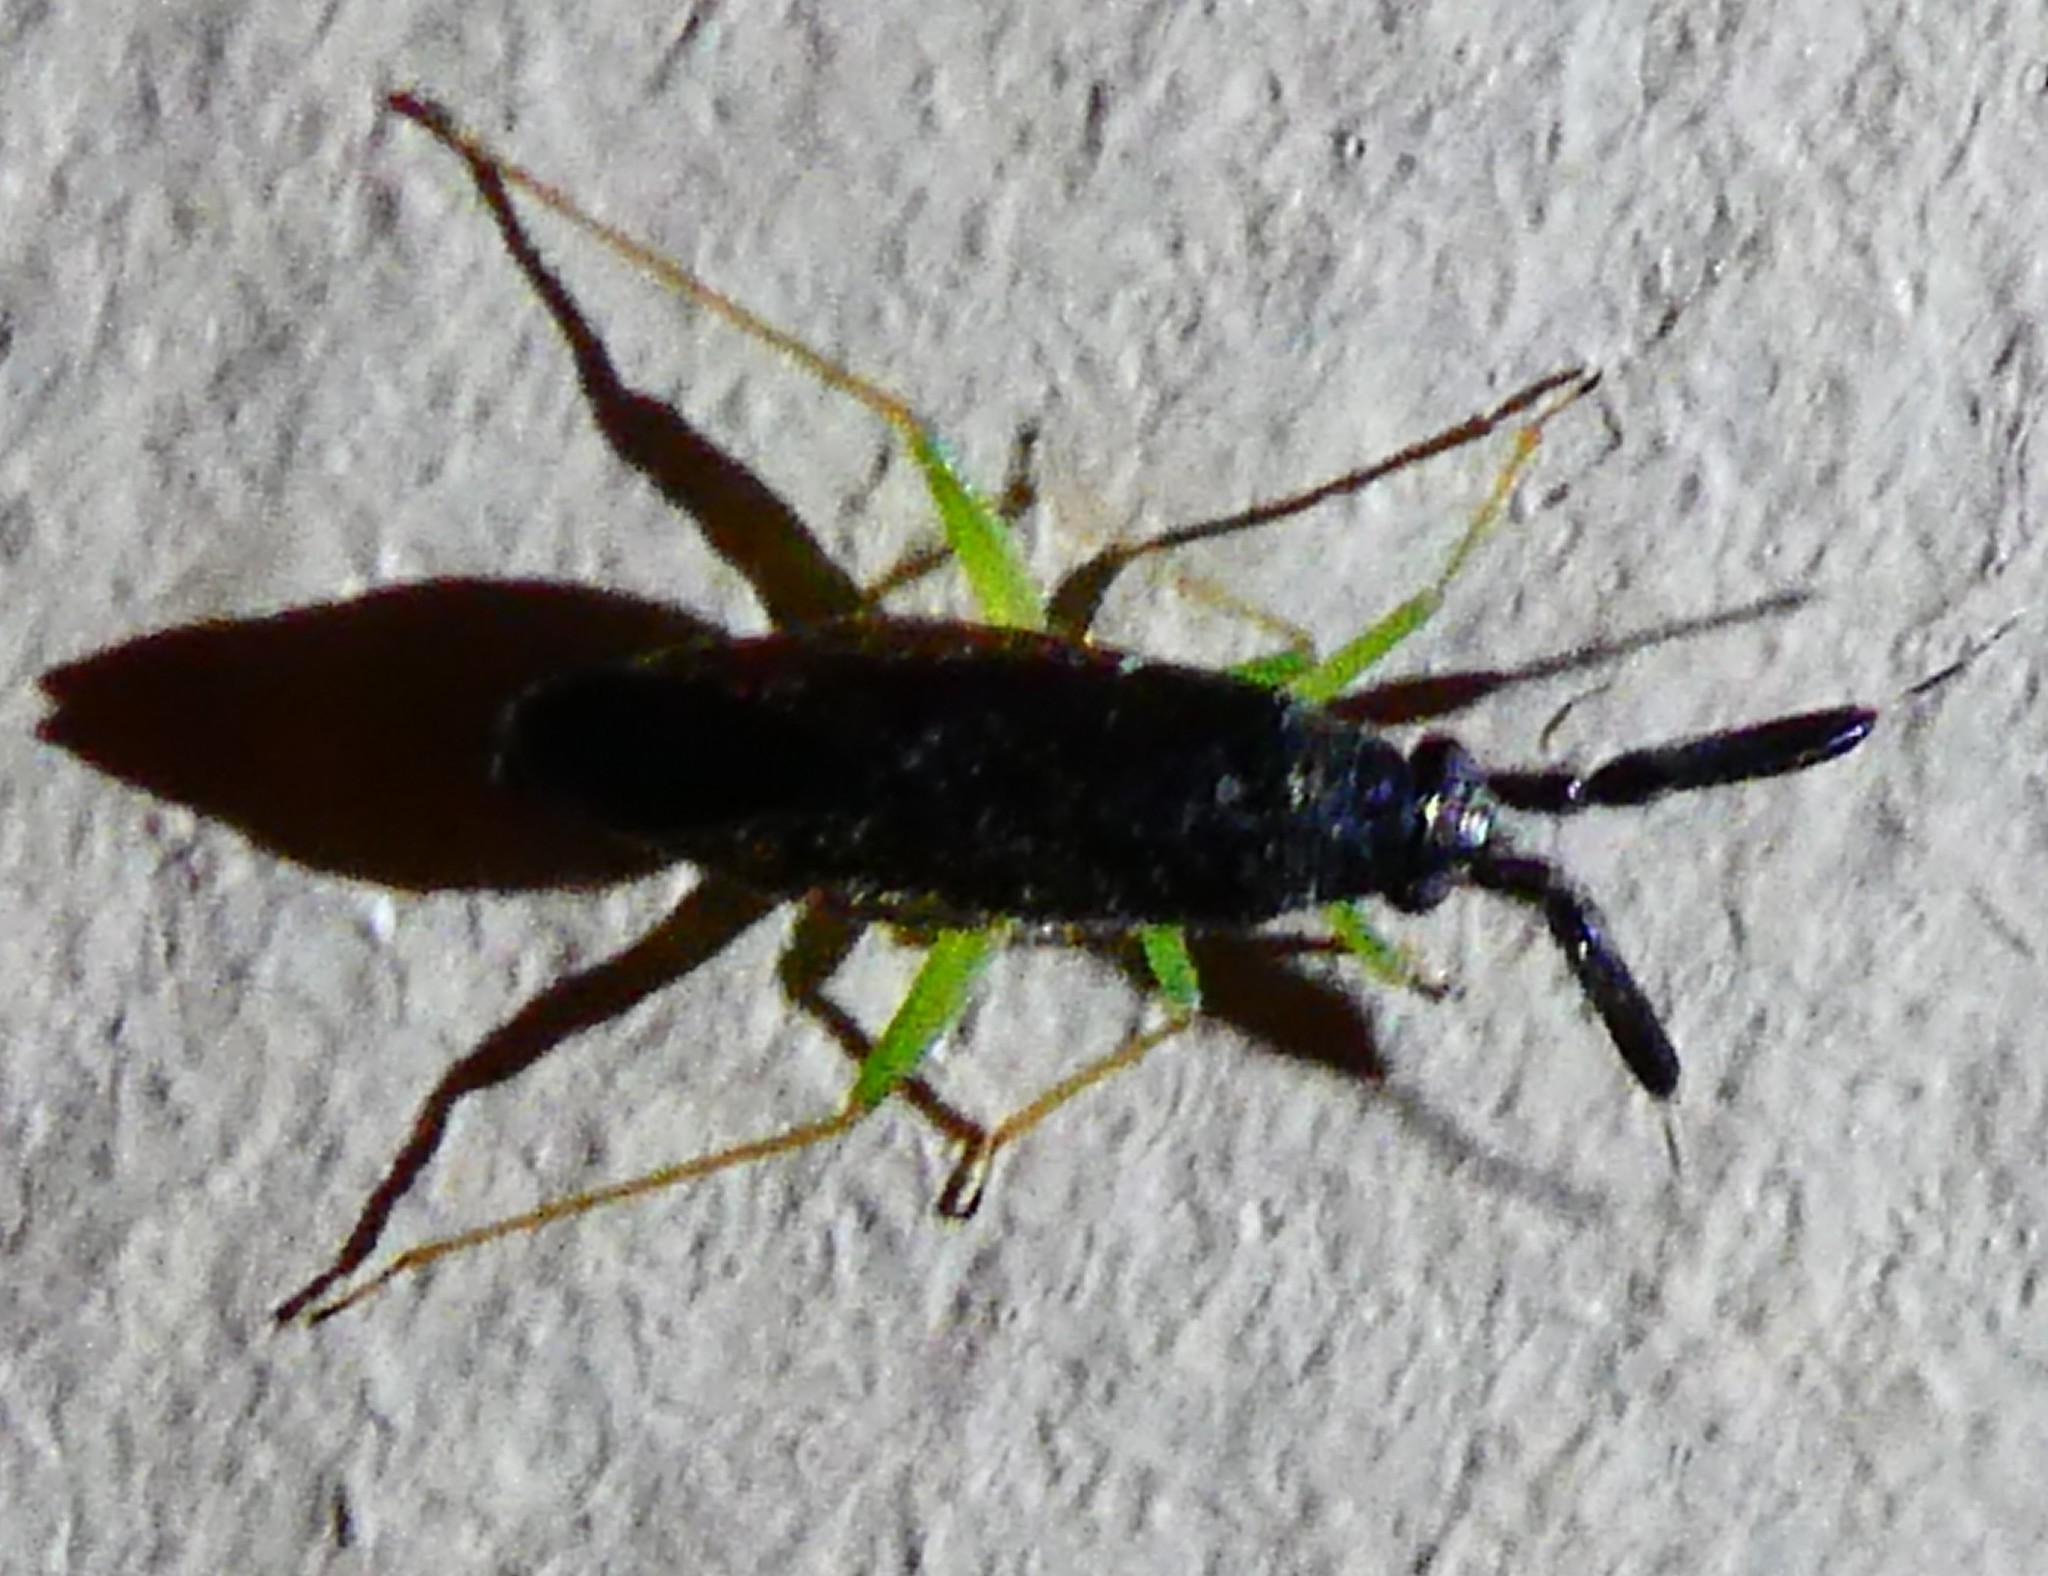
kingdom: Animalia
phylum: Arthropoda
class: Insecta
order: Hemiptera
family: Miridae
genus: Heterotoma
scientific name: Heterotoma planicornis
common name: Plant bug
